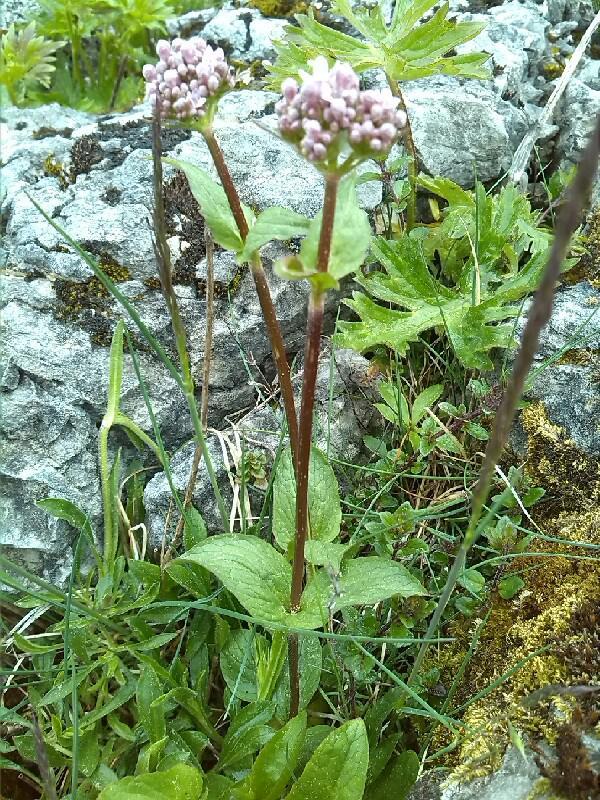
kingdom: Plantae
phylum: Tracheophyta
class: Magnoliopsida
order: Dipsacales
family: Caprifoliaceae
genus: Valeriana
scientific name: Valeriana montana
